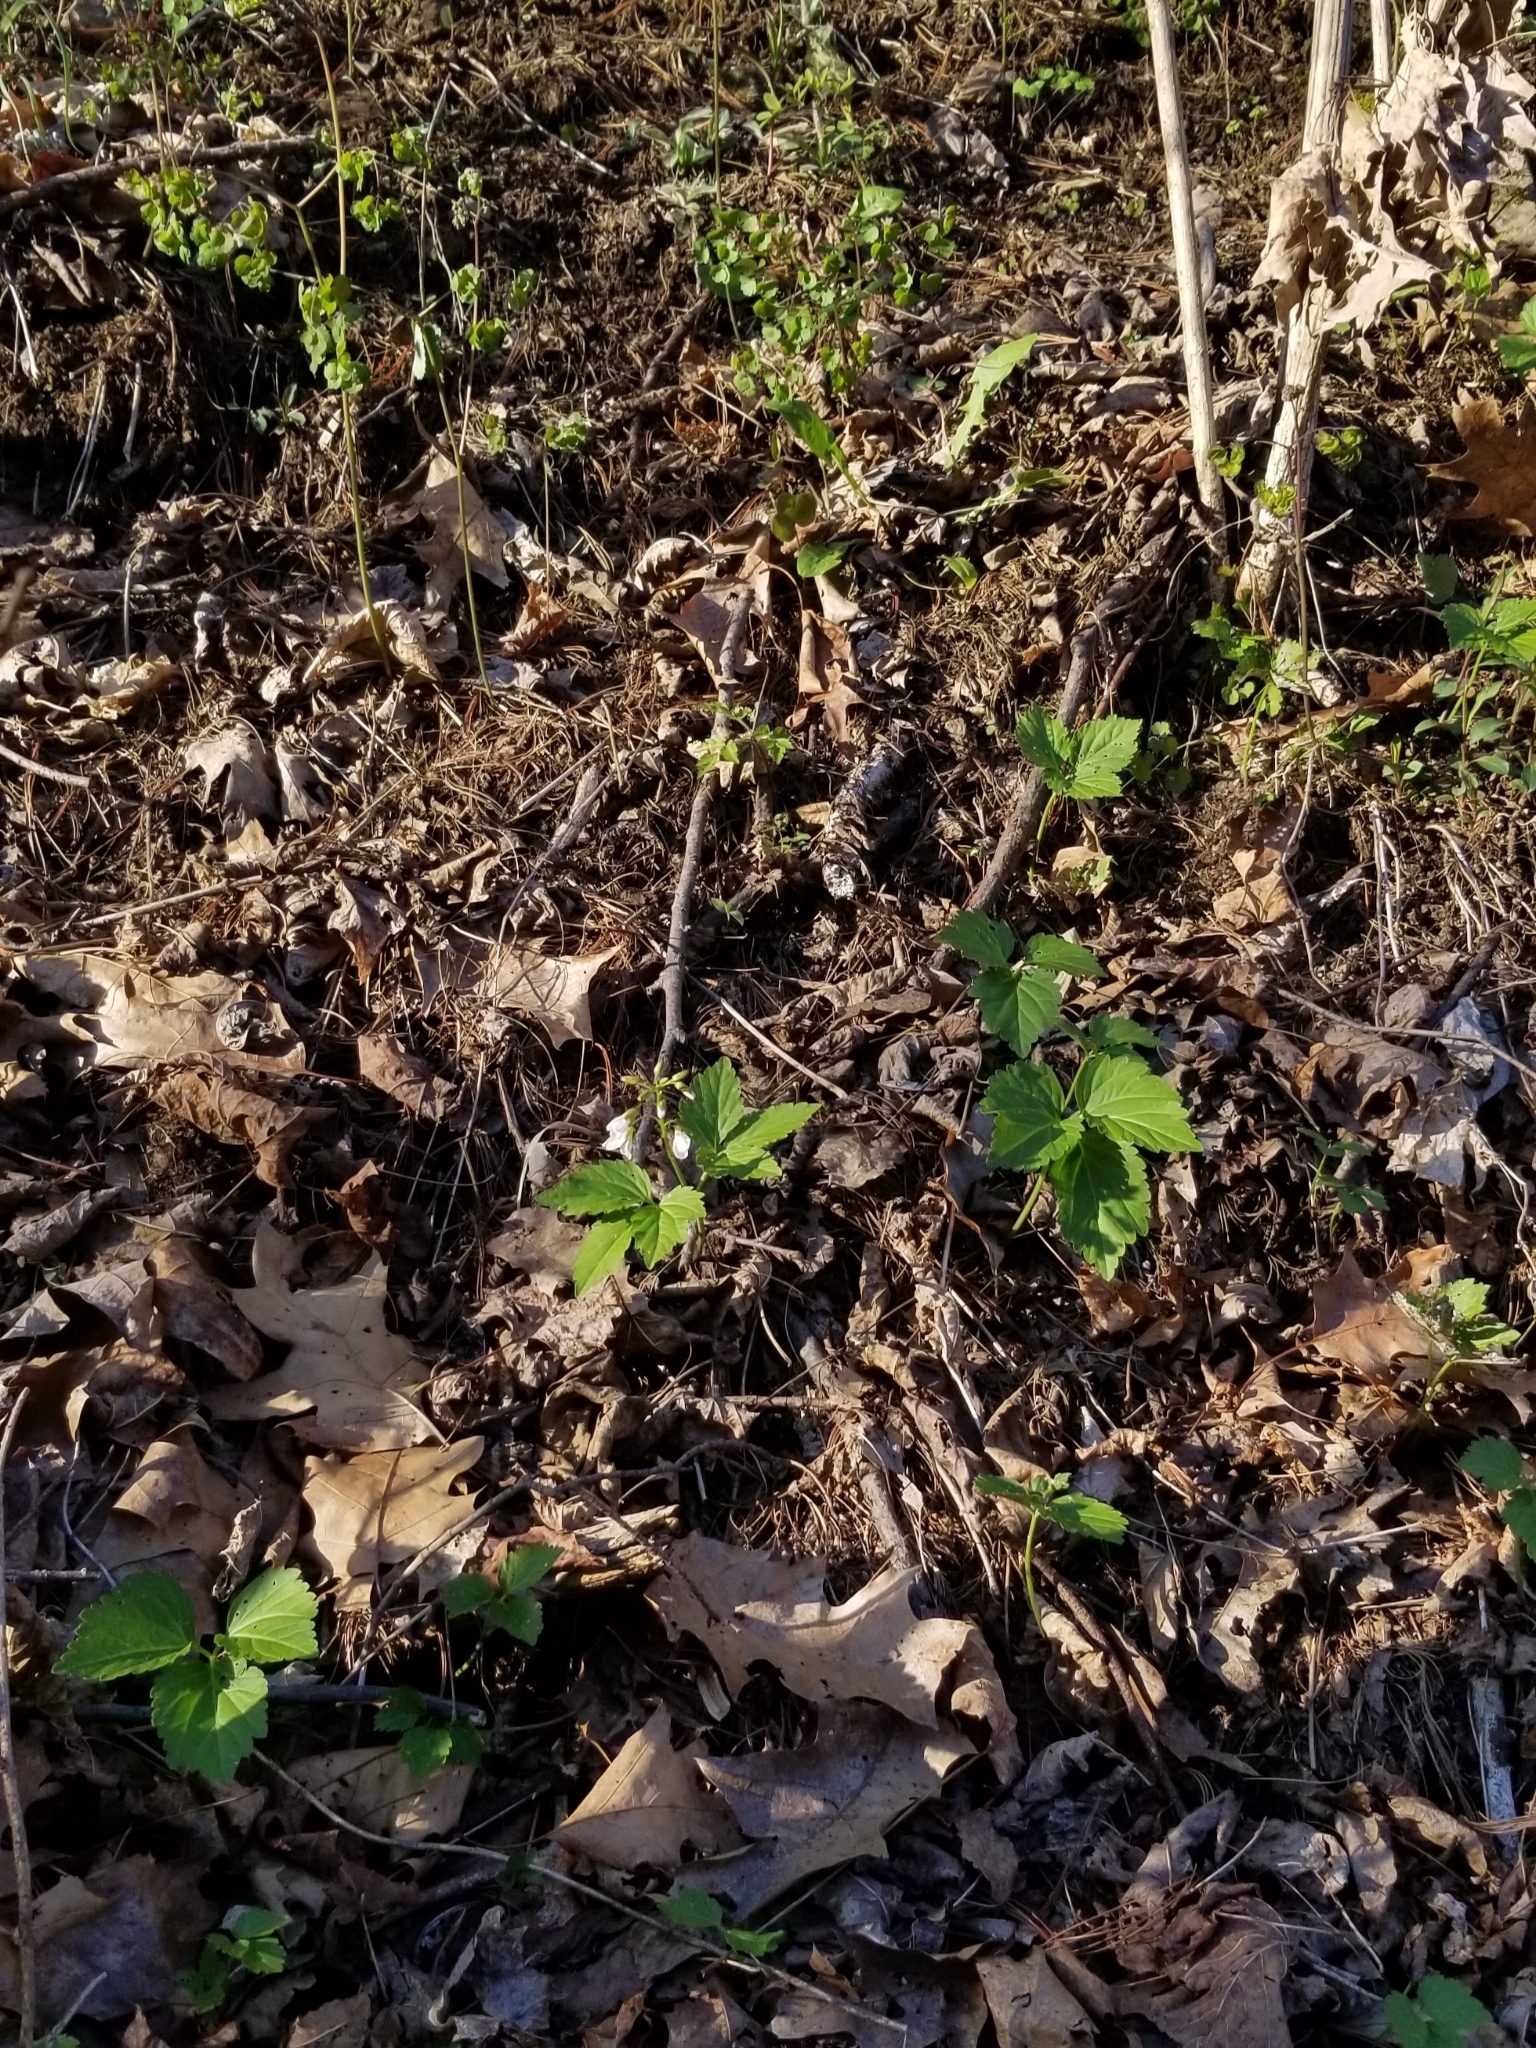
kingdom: Plantae
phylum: Tracheophyta
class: Magnoliopsida
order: Brassicales
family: Brassicaceae
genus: Cardamine
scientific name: Cardamine diphylla
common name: Broad-leaved toothwort
